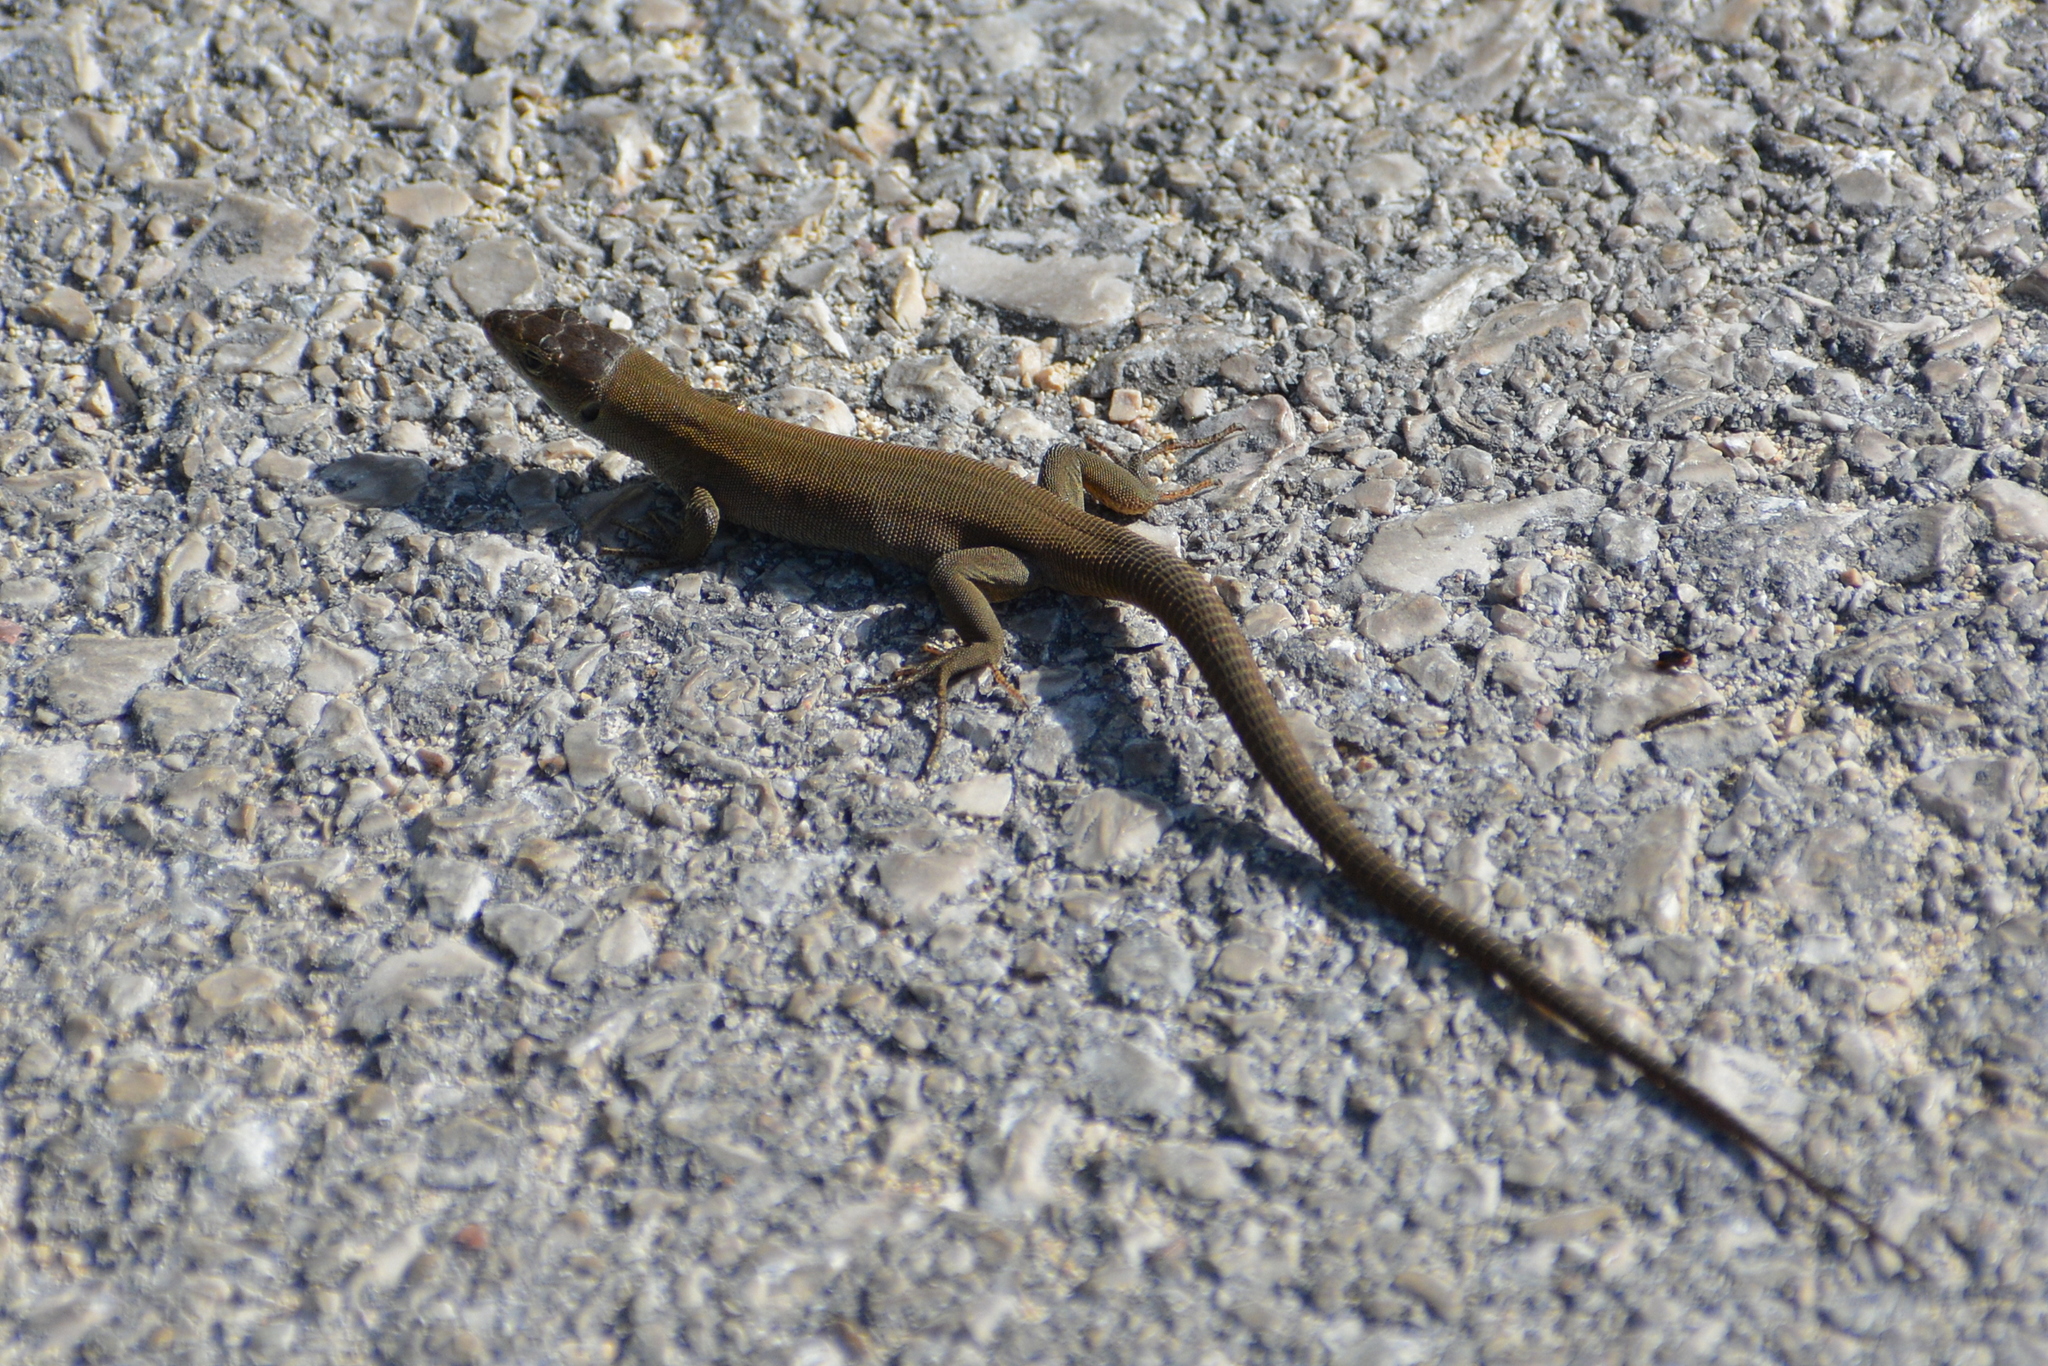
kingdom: Animalia
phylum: Chordata
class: Squamata
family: Lacertidae
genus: Podarcis
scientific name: Podarcis melisellensis
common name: Dalmatian wall lizard
